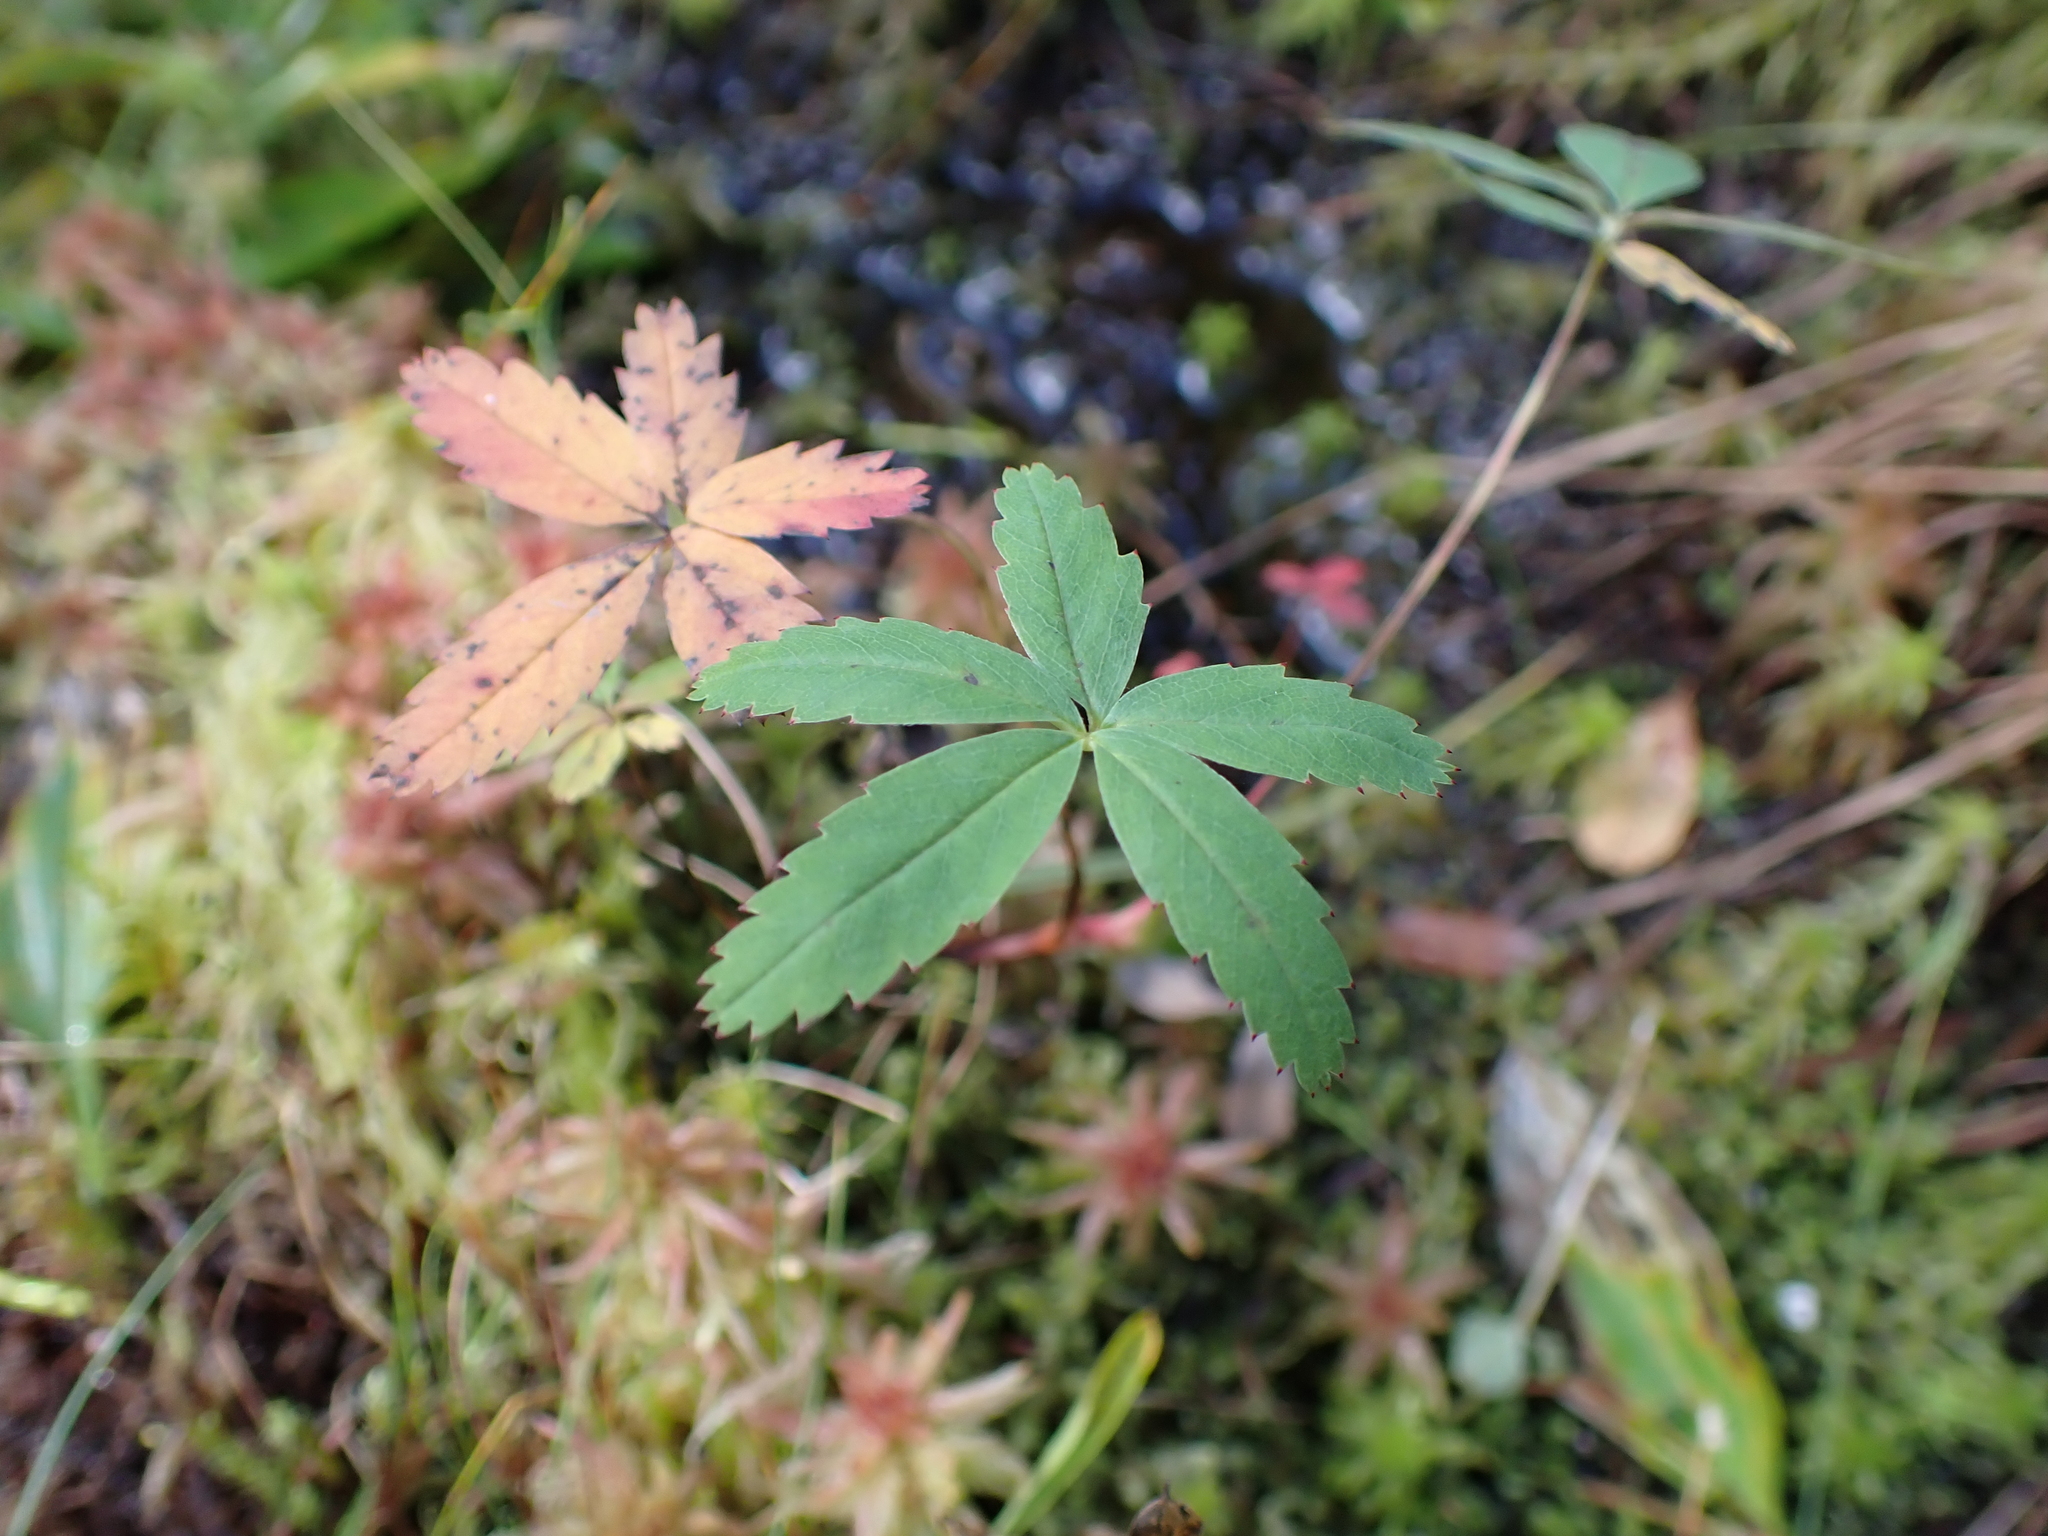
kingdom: Plantae
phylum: Tracheophyta
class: Magnoliopsida
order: Rosales
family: Rosaceae
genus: Comarum
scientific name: Comarum palustre
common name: Marsh cinquefoil
